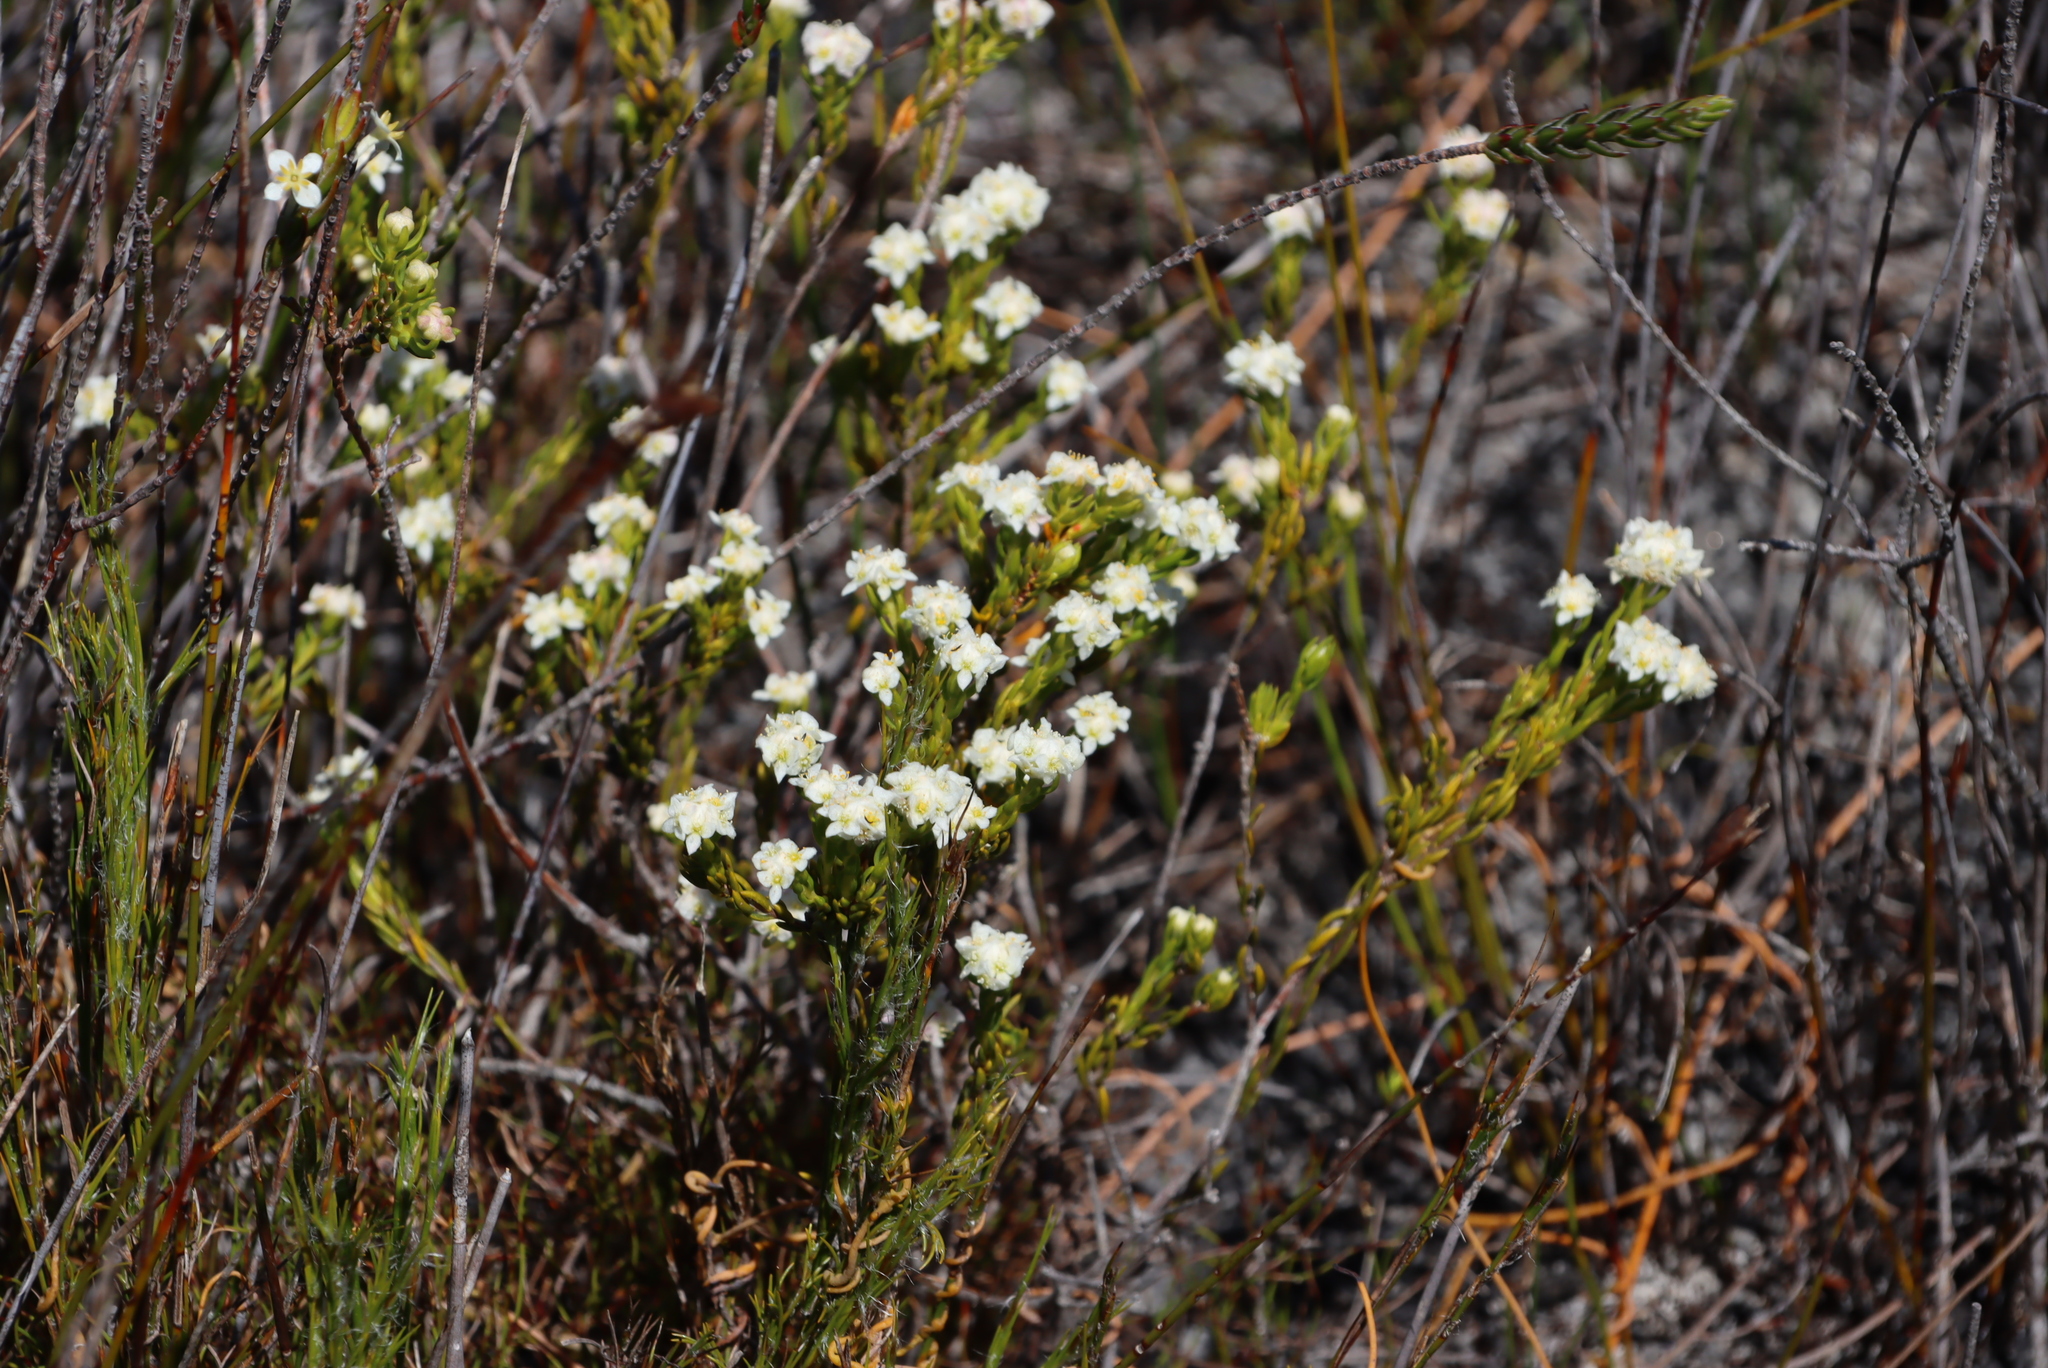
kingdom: Plantae
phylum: Tracheophyta
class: Magnoliopsida
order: Malvales
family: Thymelaeaceae
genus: Lachnaea
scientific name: Lachnaea densiflora
